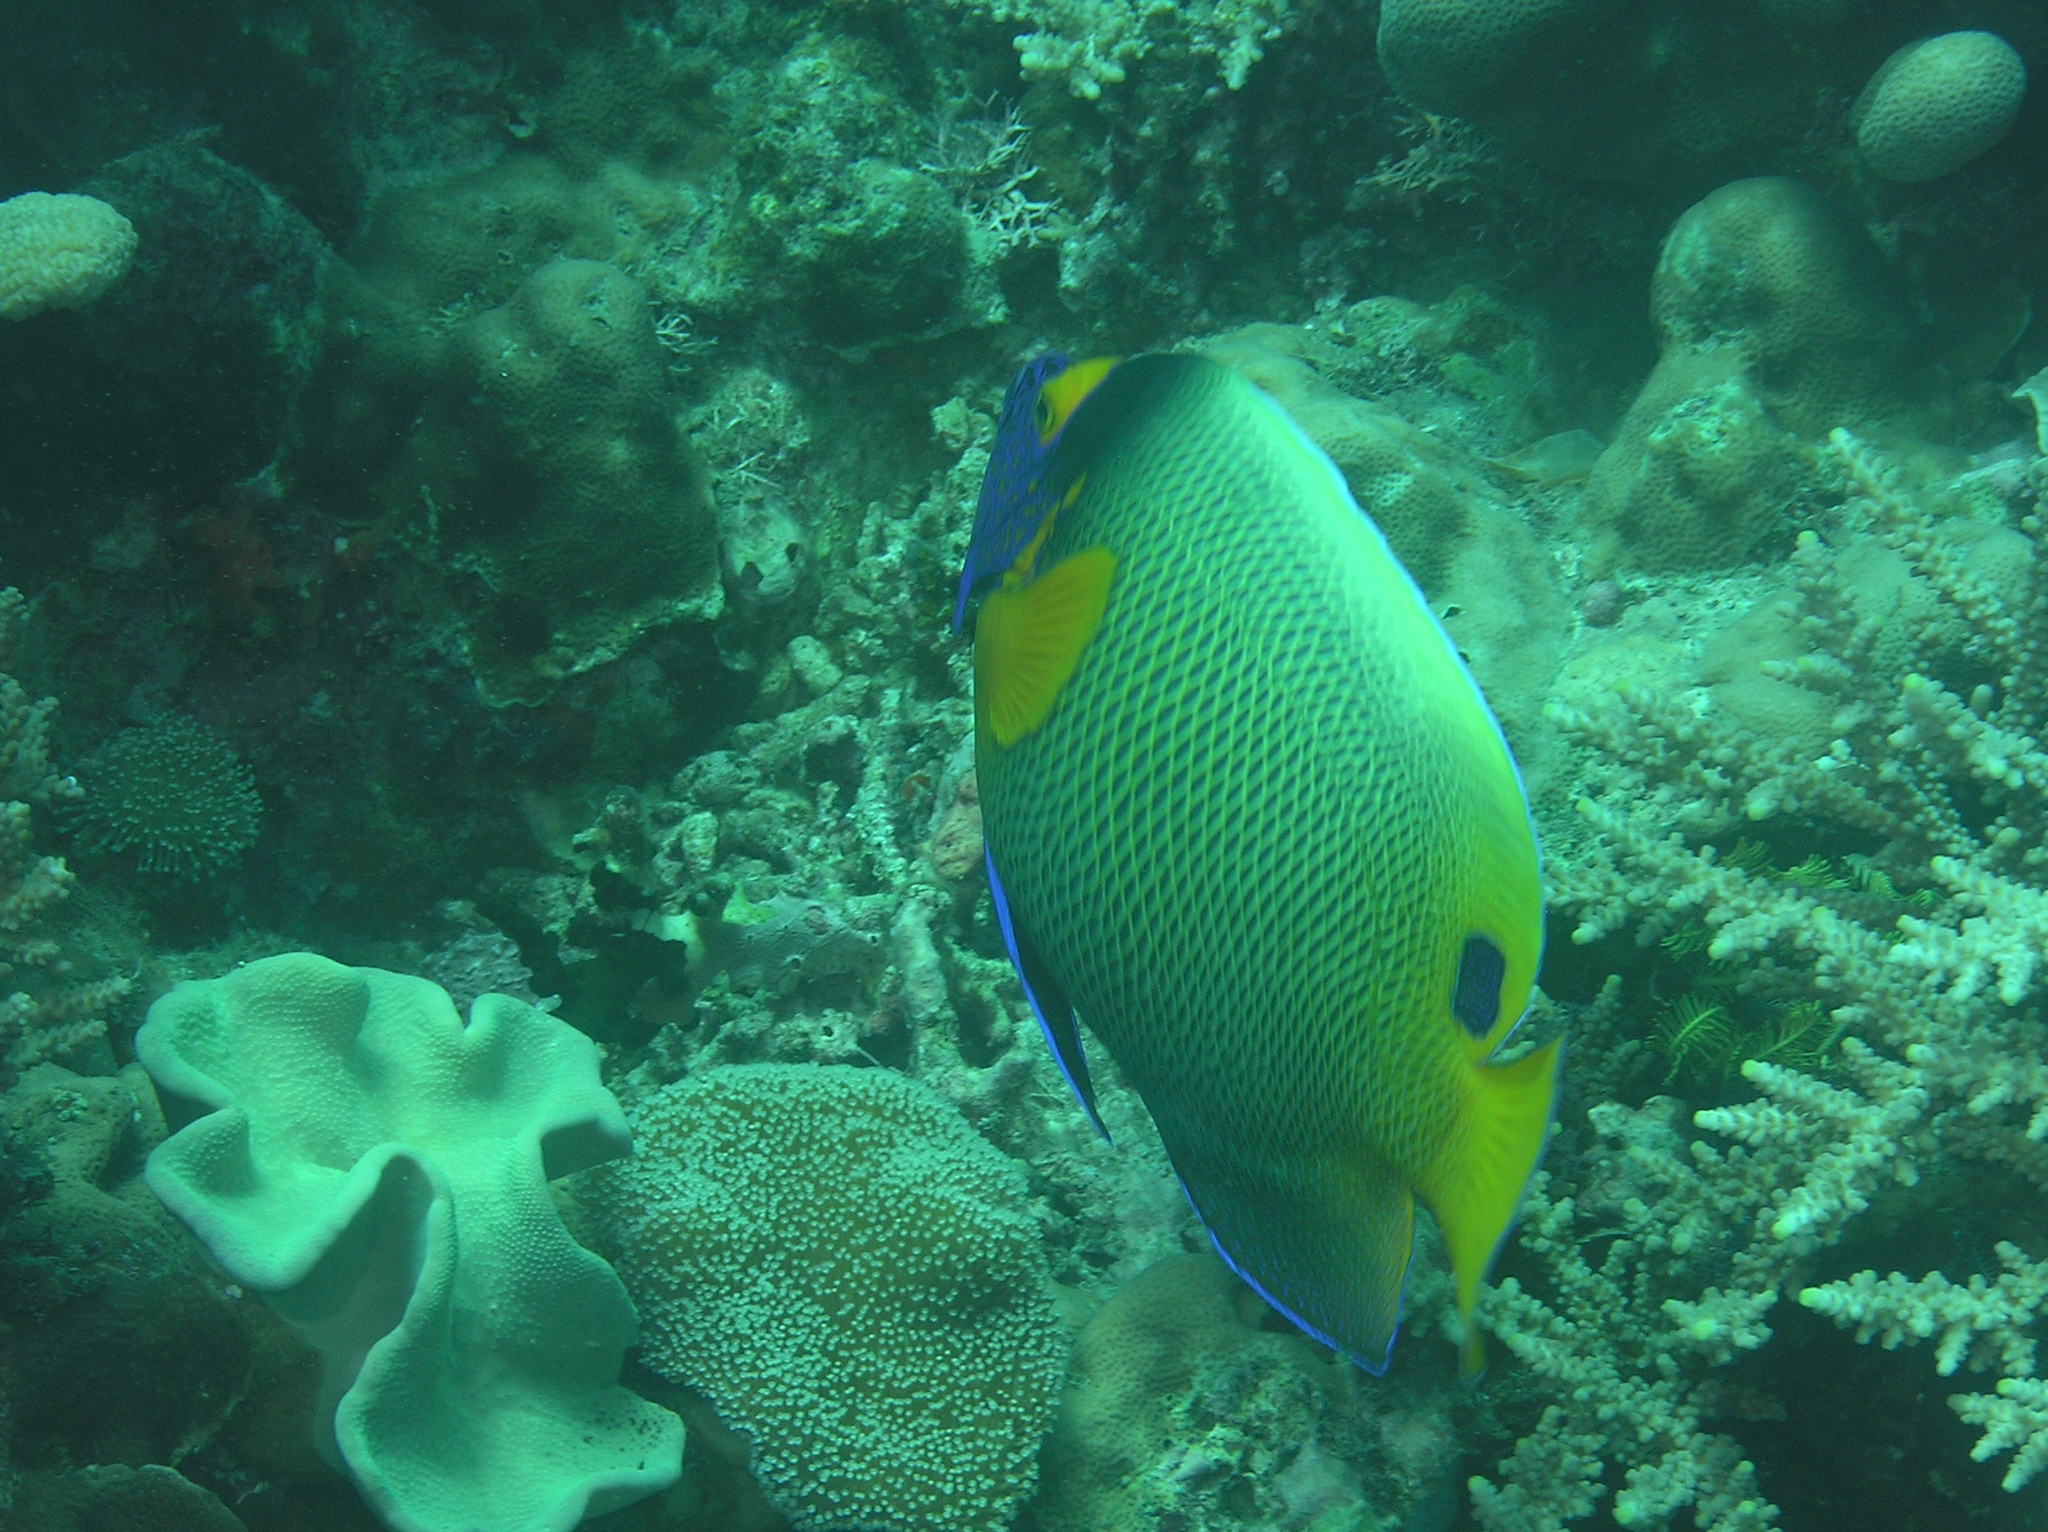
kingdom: Animalia
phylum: Chordata
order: Perciformes
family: Pomacanthidae
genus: Pomacanthus
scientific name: Pomacanthus xanthometopon
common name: Yellow-faced angelfish
